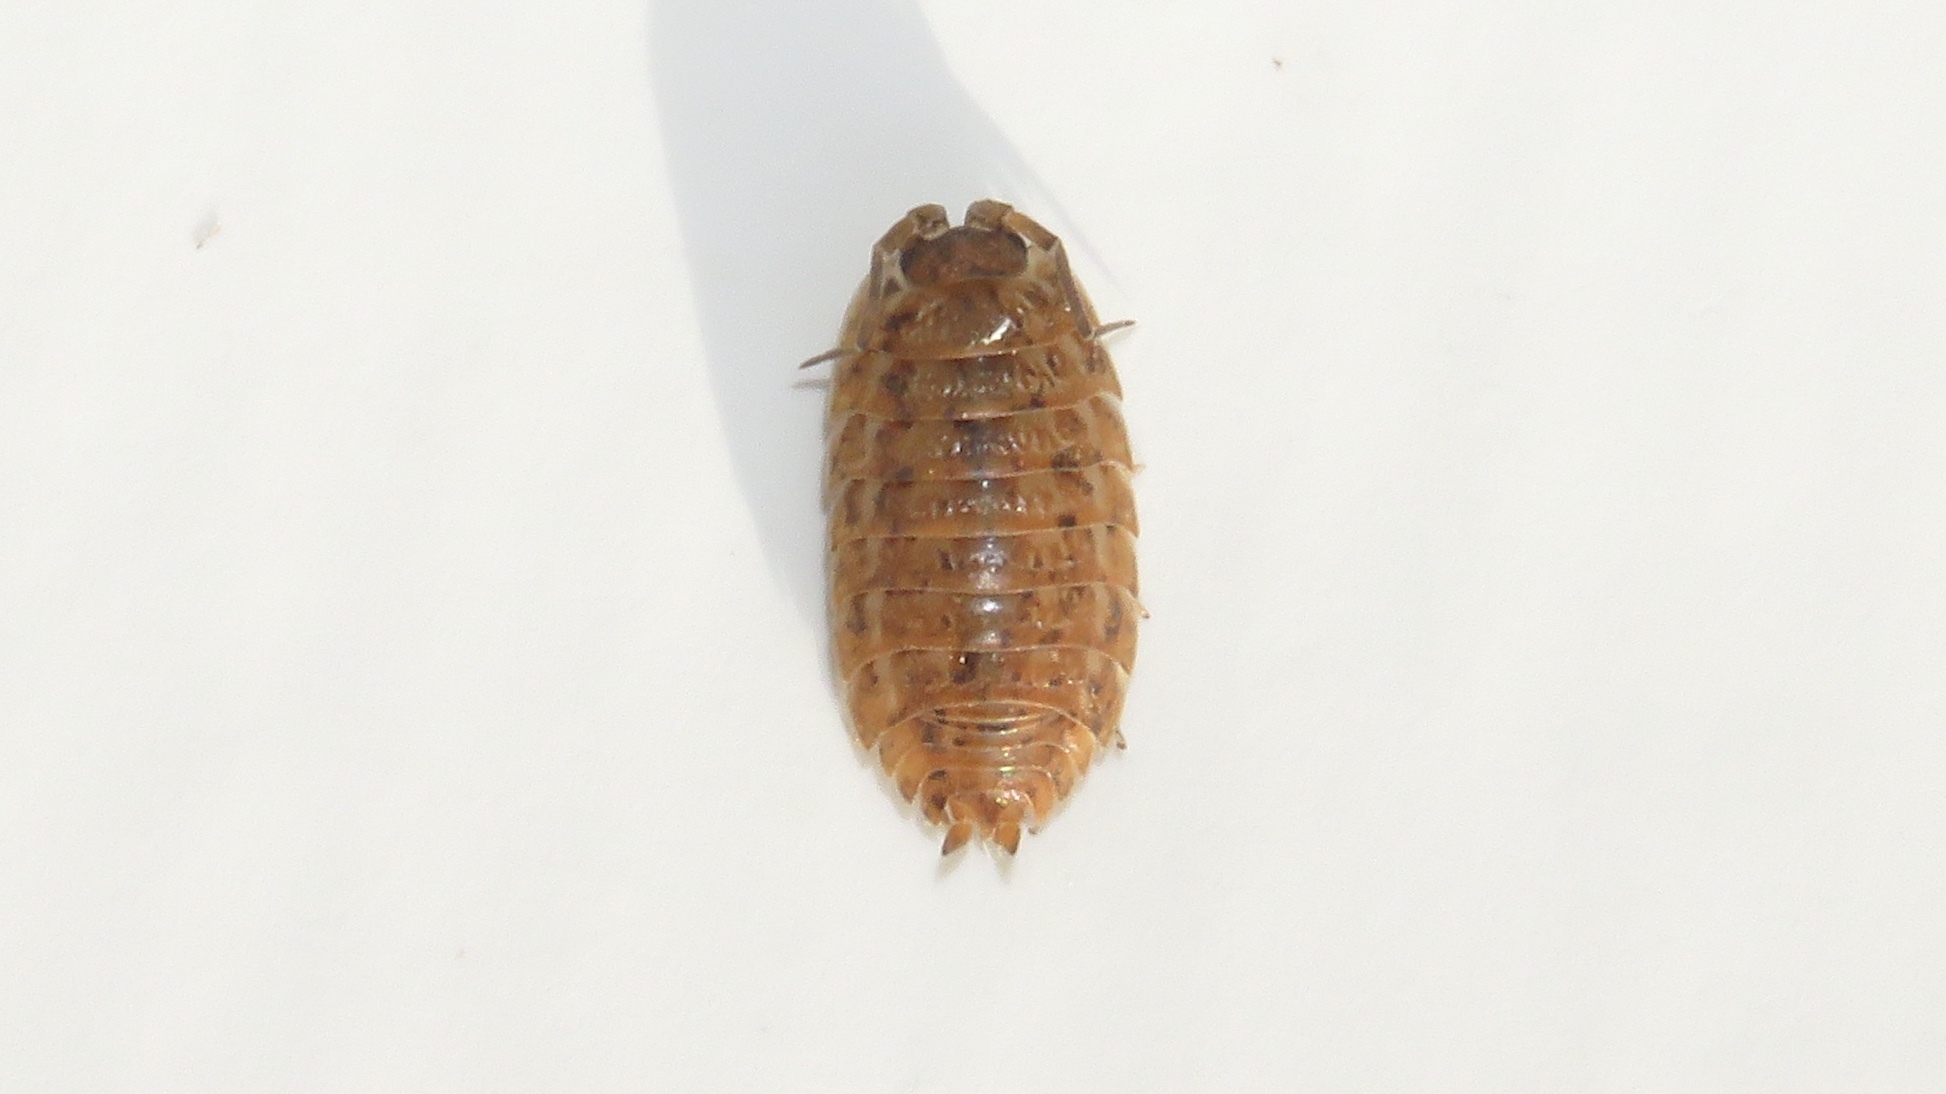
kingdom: Animalia
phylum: Arthropoda
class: Malacostraca
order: Isopoda
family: Trachelipodidae
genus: Trachelipus
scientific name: Trachelipus rathkii
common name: Isopod
